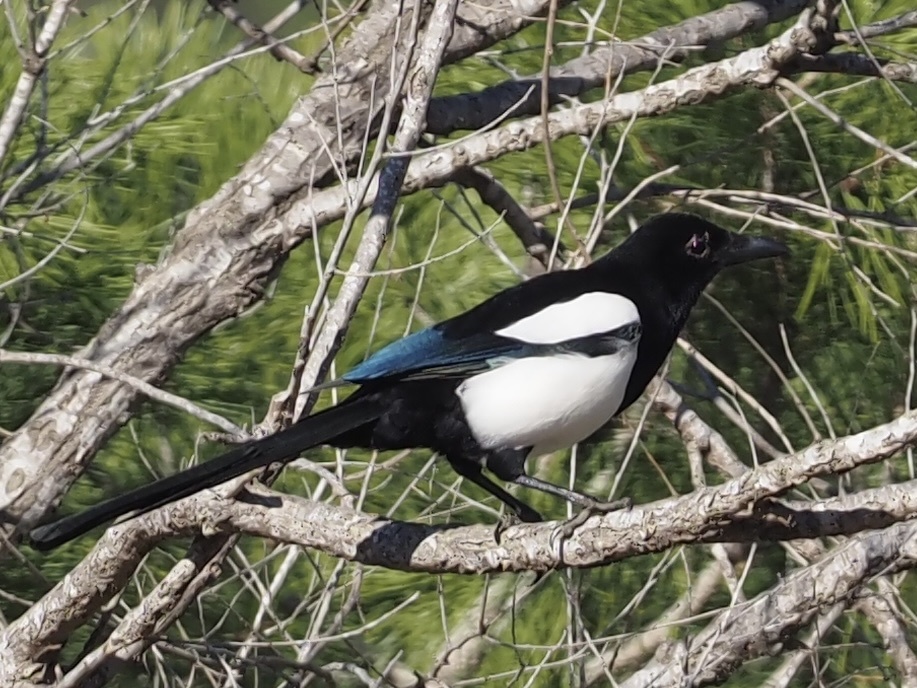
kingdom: Animalia
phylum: Chordata
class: Aves
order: Passeriformes
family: Corvidae
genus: Pica
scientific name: Pica pica
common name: Eurasian magpie
